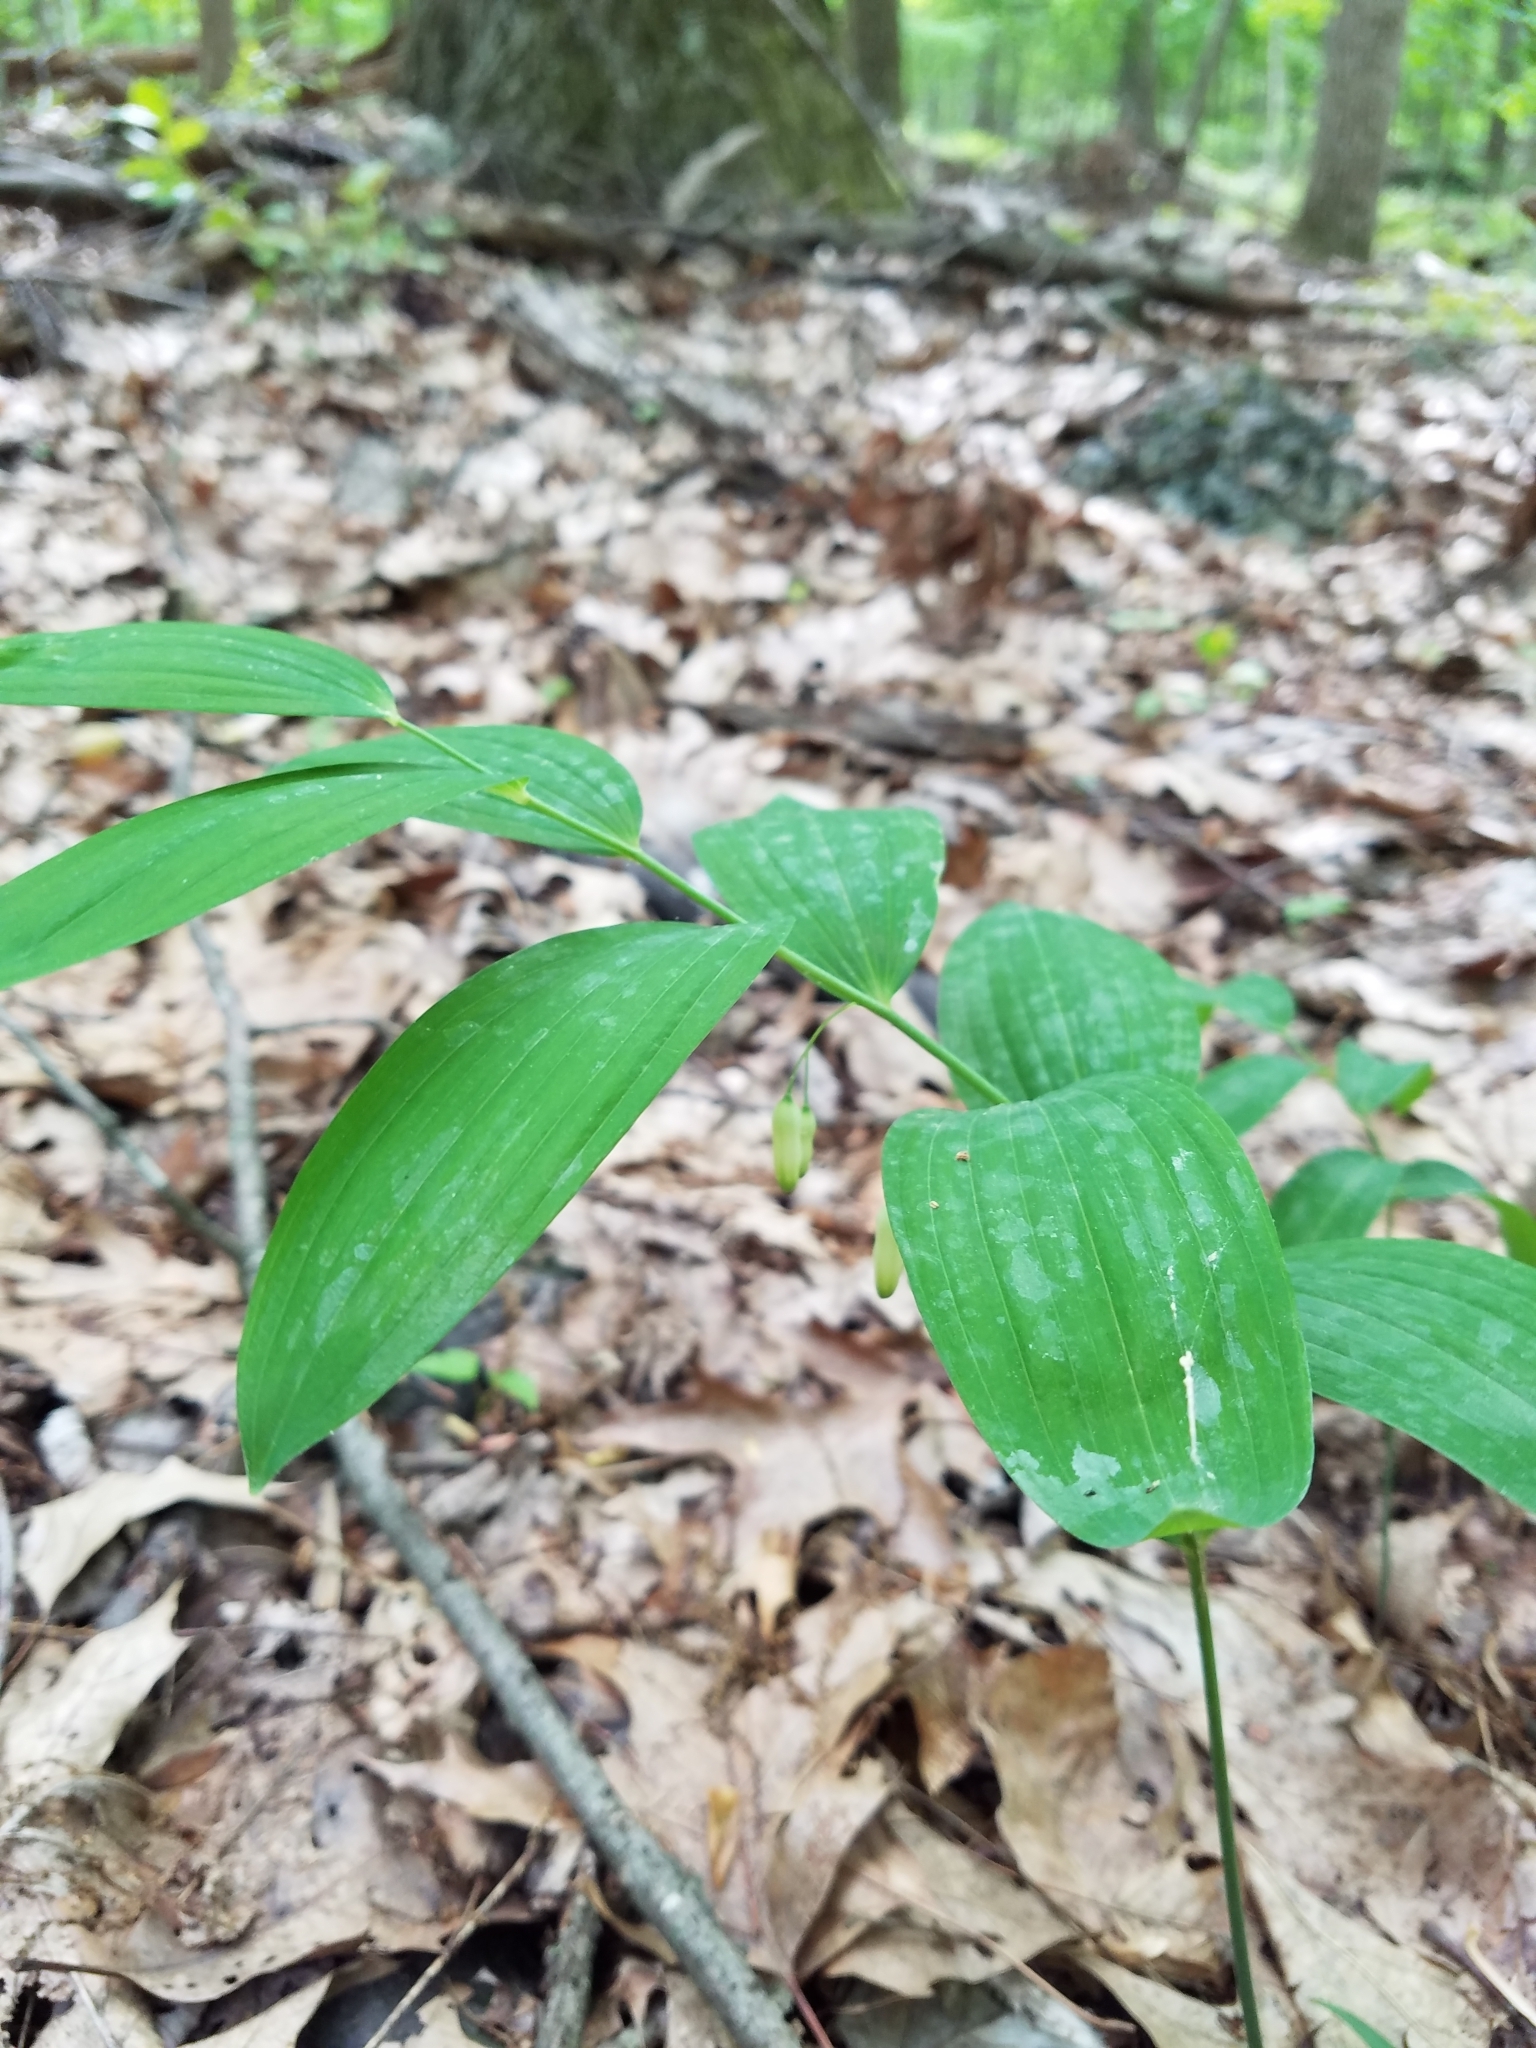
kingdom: Plantae
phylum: Tracheophyta
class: Liliopsida
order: Asparagales
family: Asparagaceae
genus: Polygonatum
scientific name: Polygonatum biflorum
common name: American solomon's-seal
